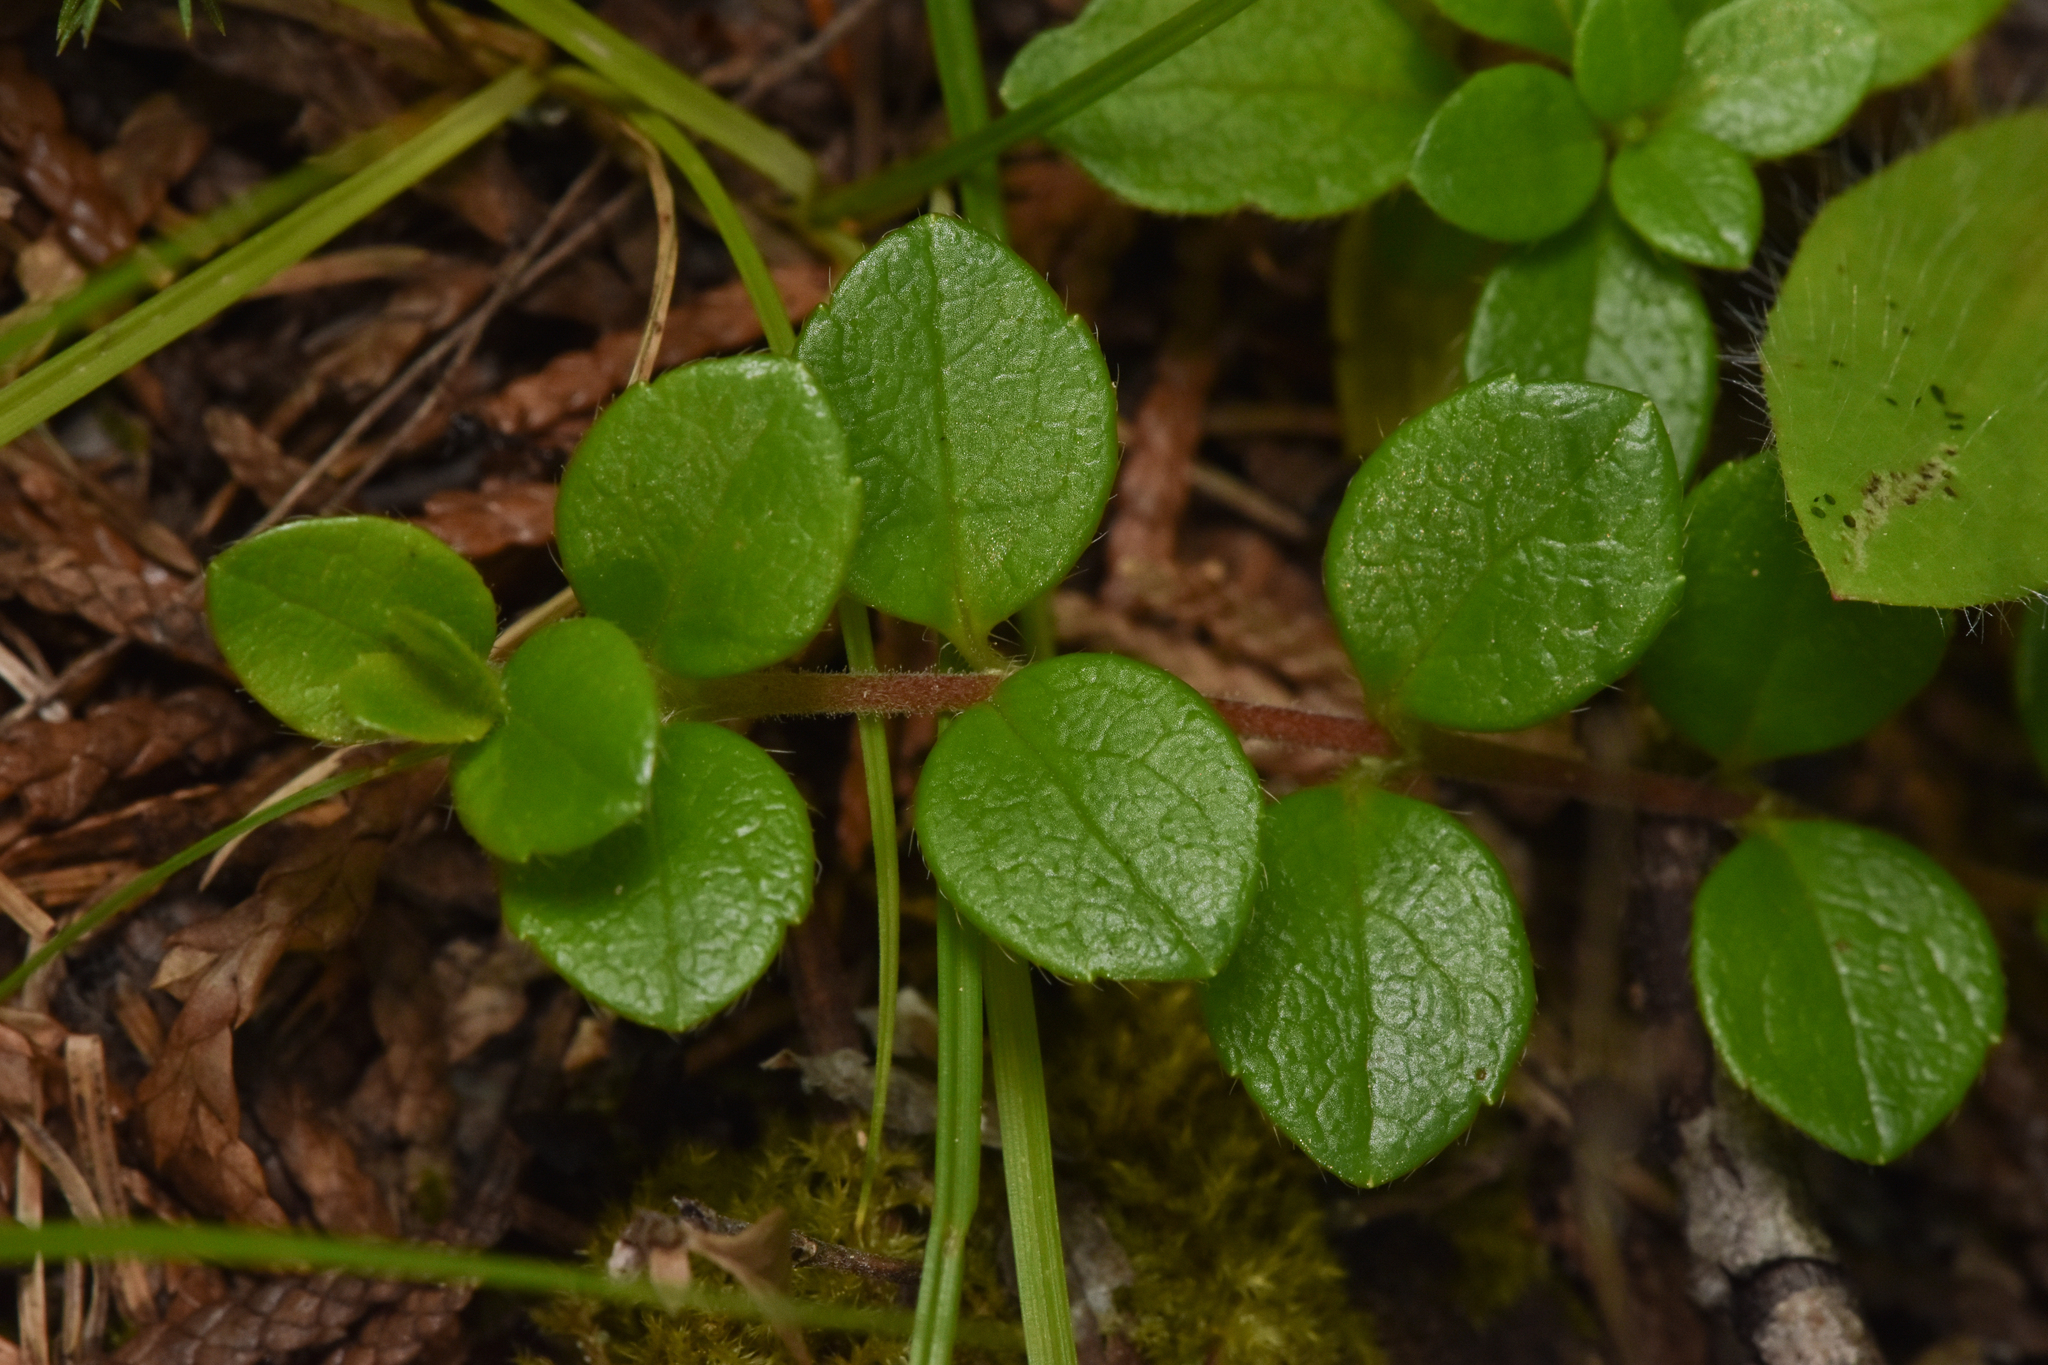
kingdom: Plantae
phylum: Tracheophyta
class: Magnoliopsida
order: Dipsacales
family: Caprifoliaceae
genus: Linnaea
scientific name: Linnaea borealis
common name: Twinflower
